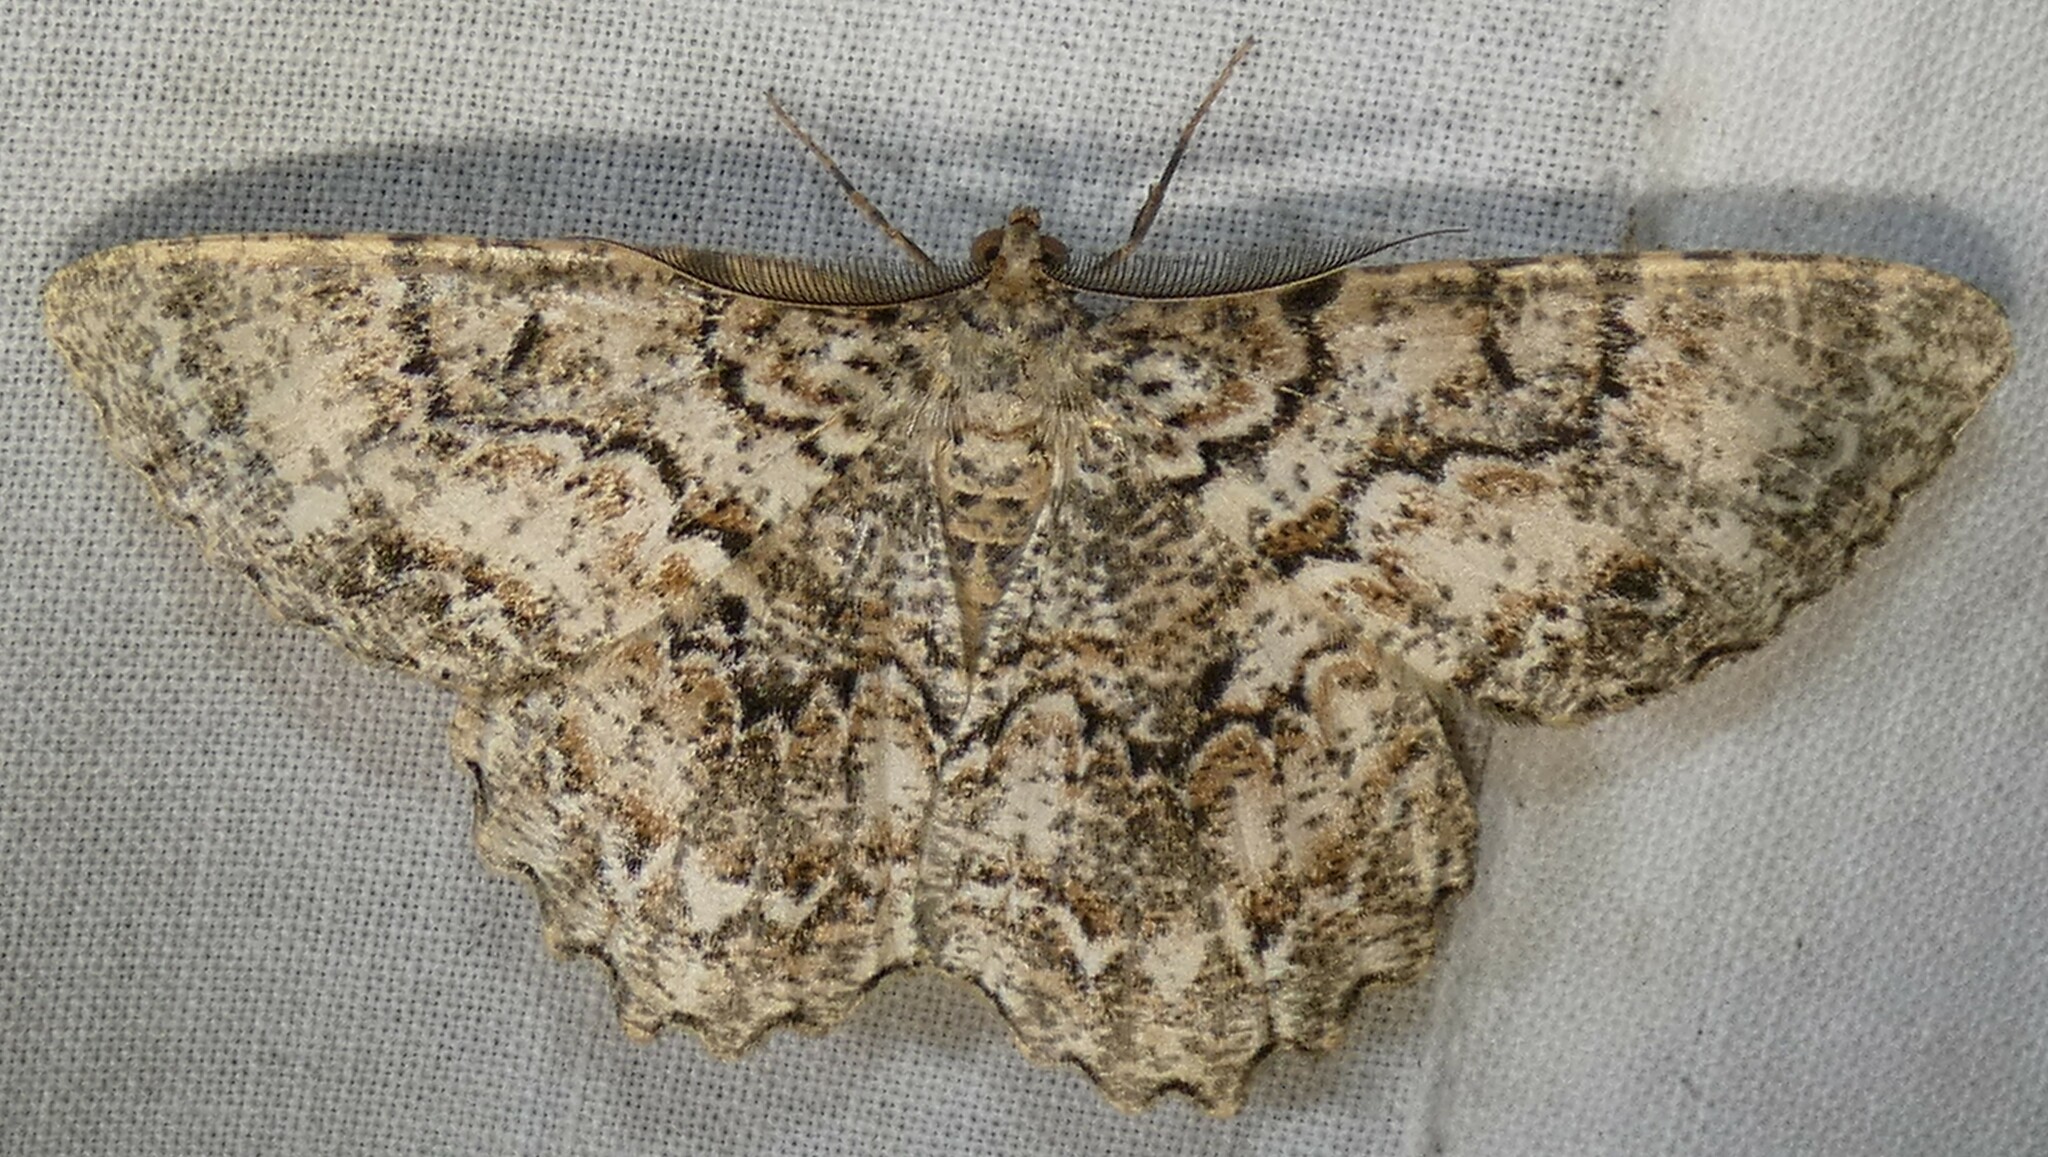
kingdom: Animalia
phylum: Arthropoda
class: Insecta
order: Lepidoptera
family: Geometridae
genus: Epimecis
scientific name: Epimecis hortaria
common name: Tulip-tree beauty
